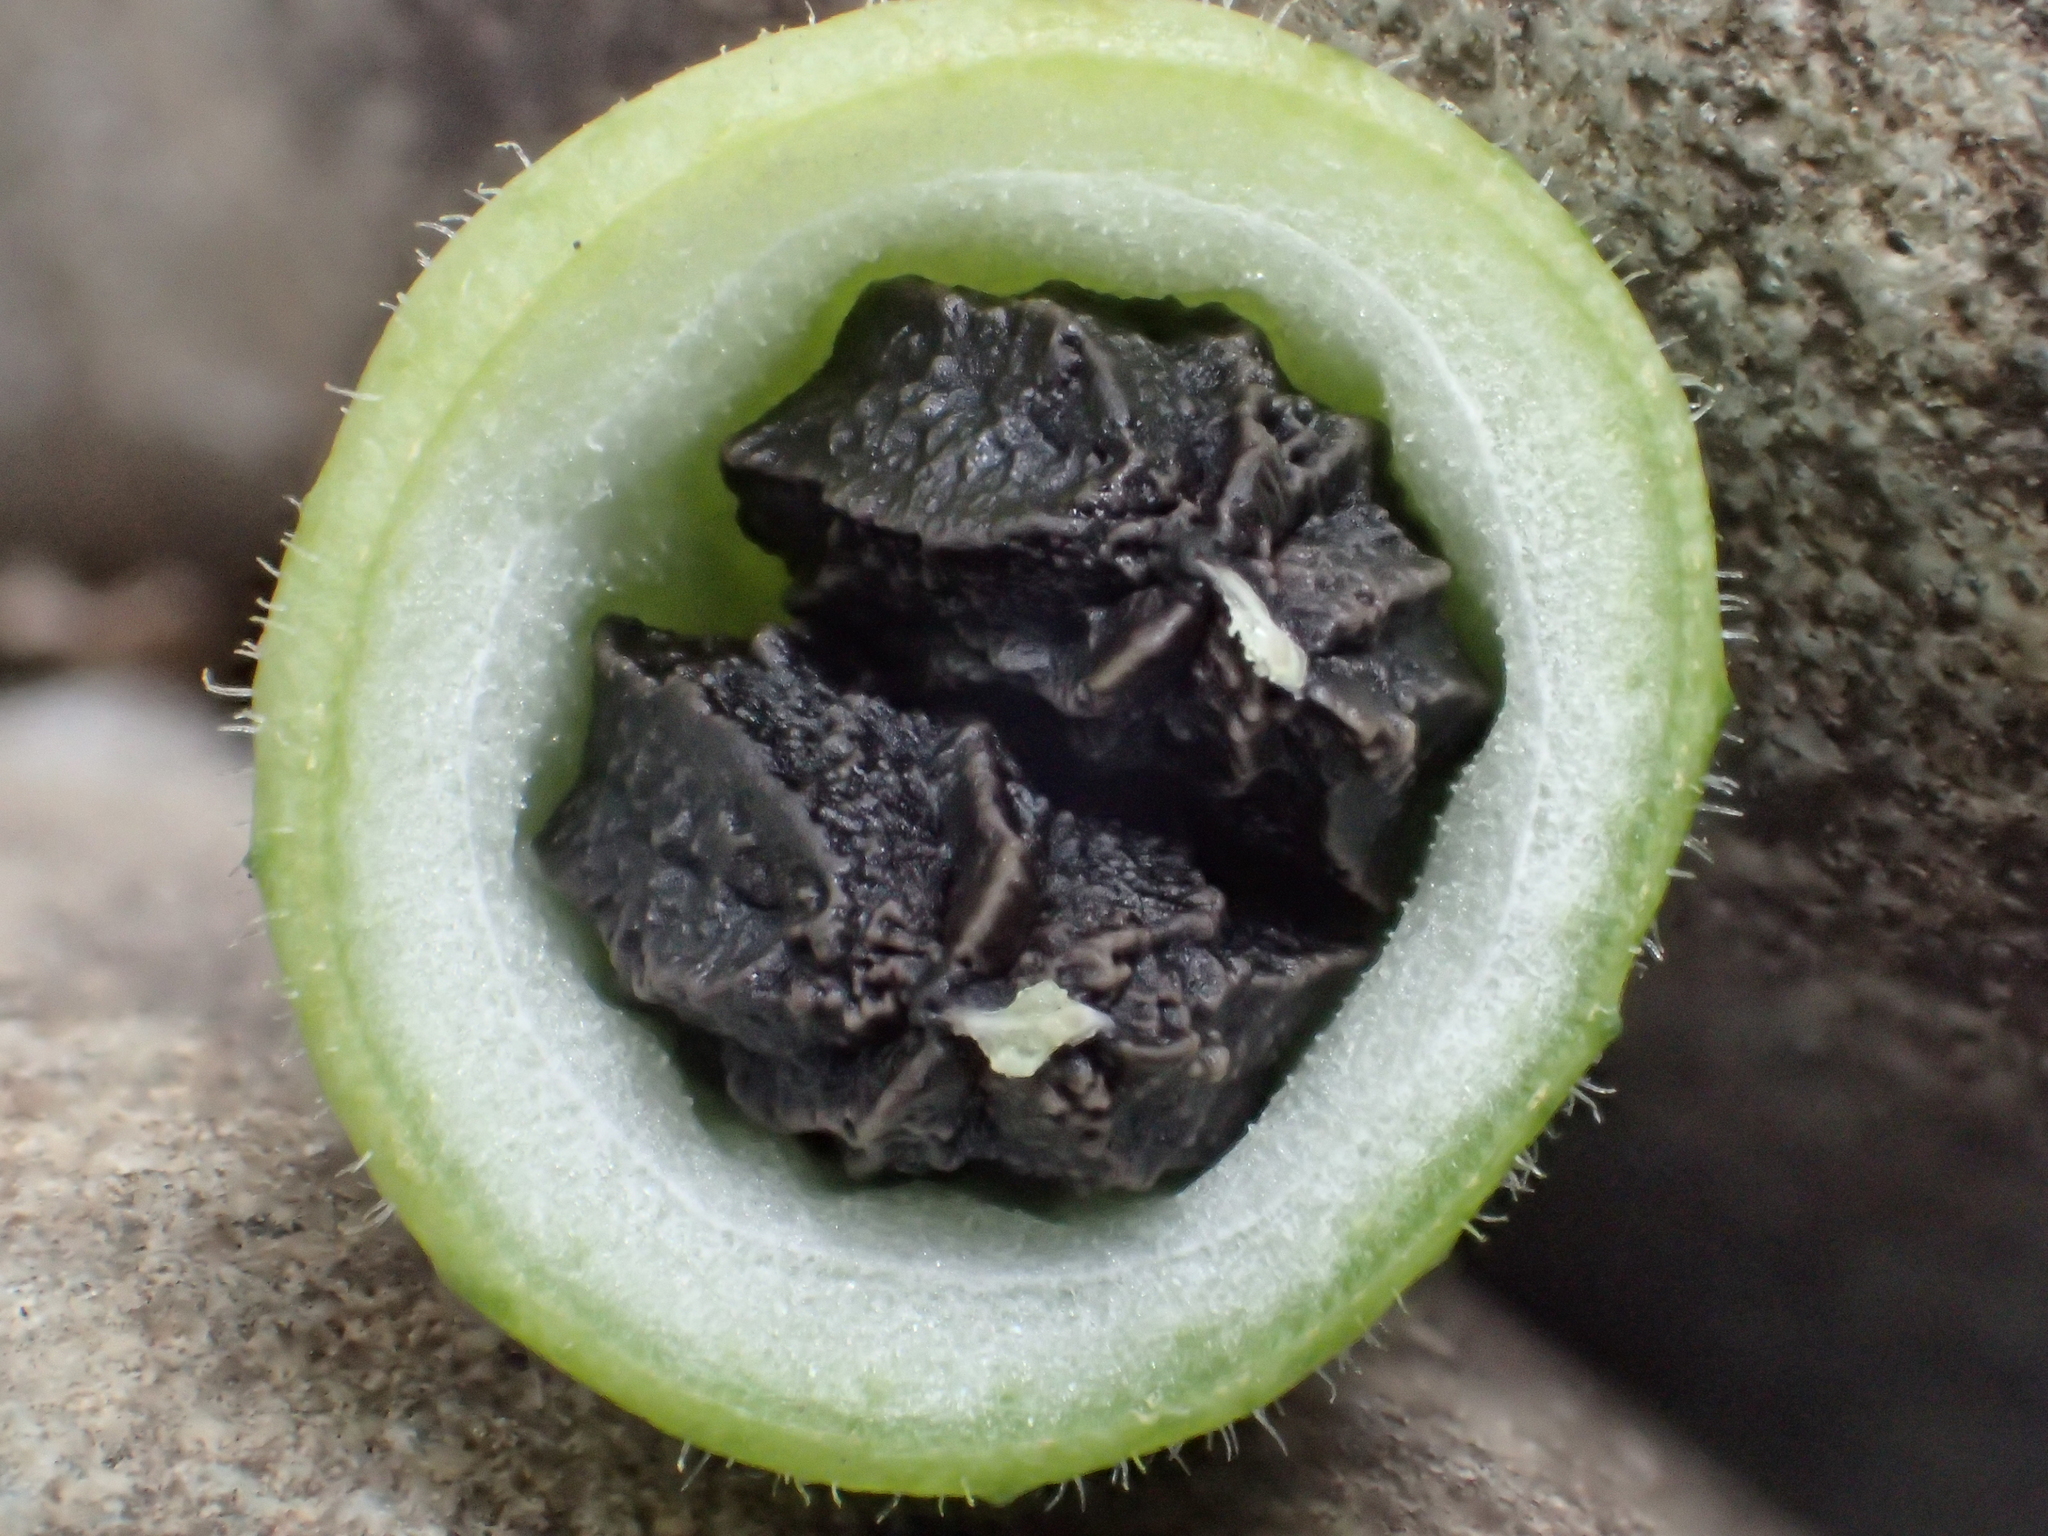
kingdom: Plantae
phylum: Tracheophyta
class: Magnoliopsida
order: Cucurbitales
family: Cucurbitaceae
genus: Actinostemma
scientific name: Actinostemma tenerum
